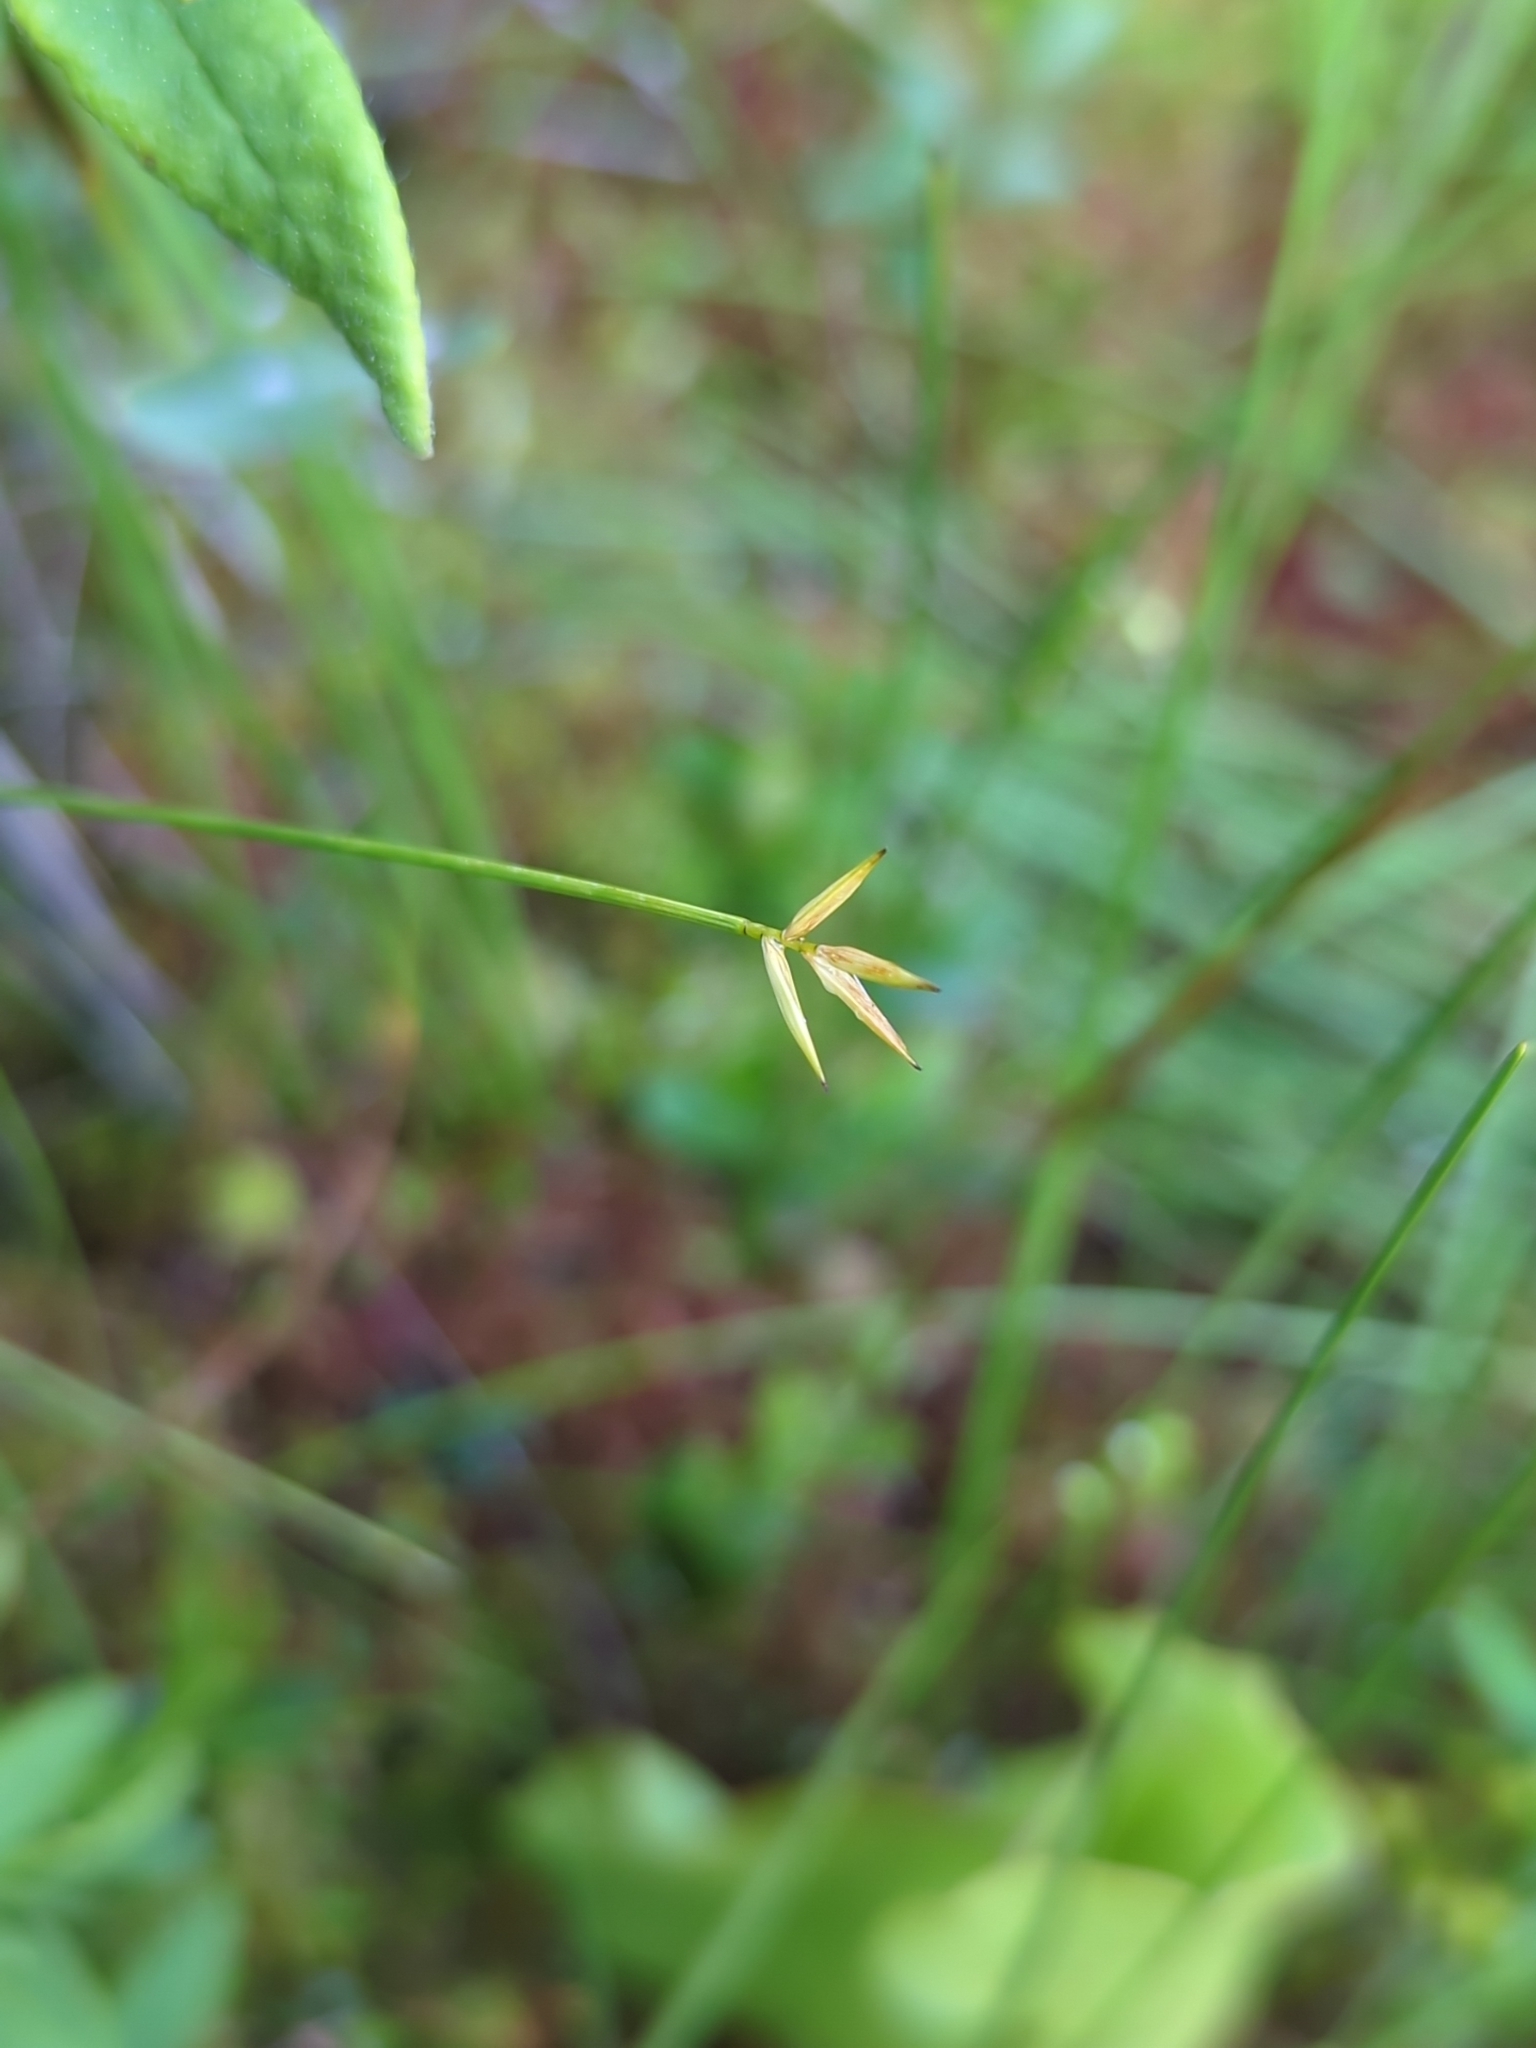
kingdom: Plantae
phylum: Tracheophyta
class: Liliopsida
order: Poales
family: Cyperaceae
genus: Carex
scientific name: Carex pauciflora
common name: Few-flowered sedge
